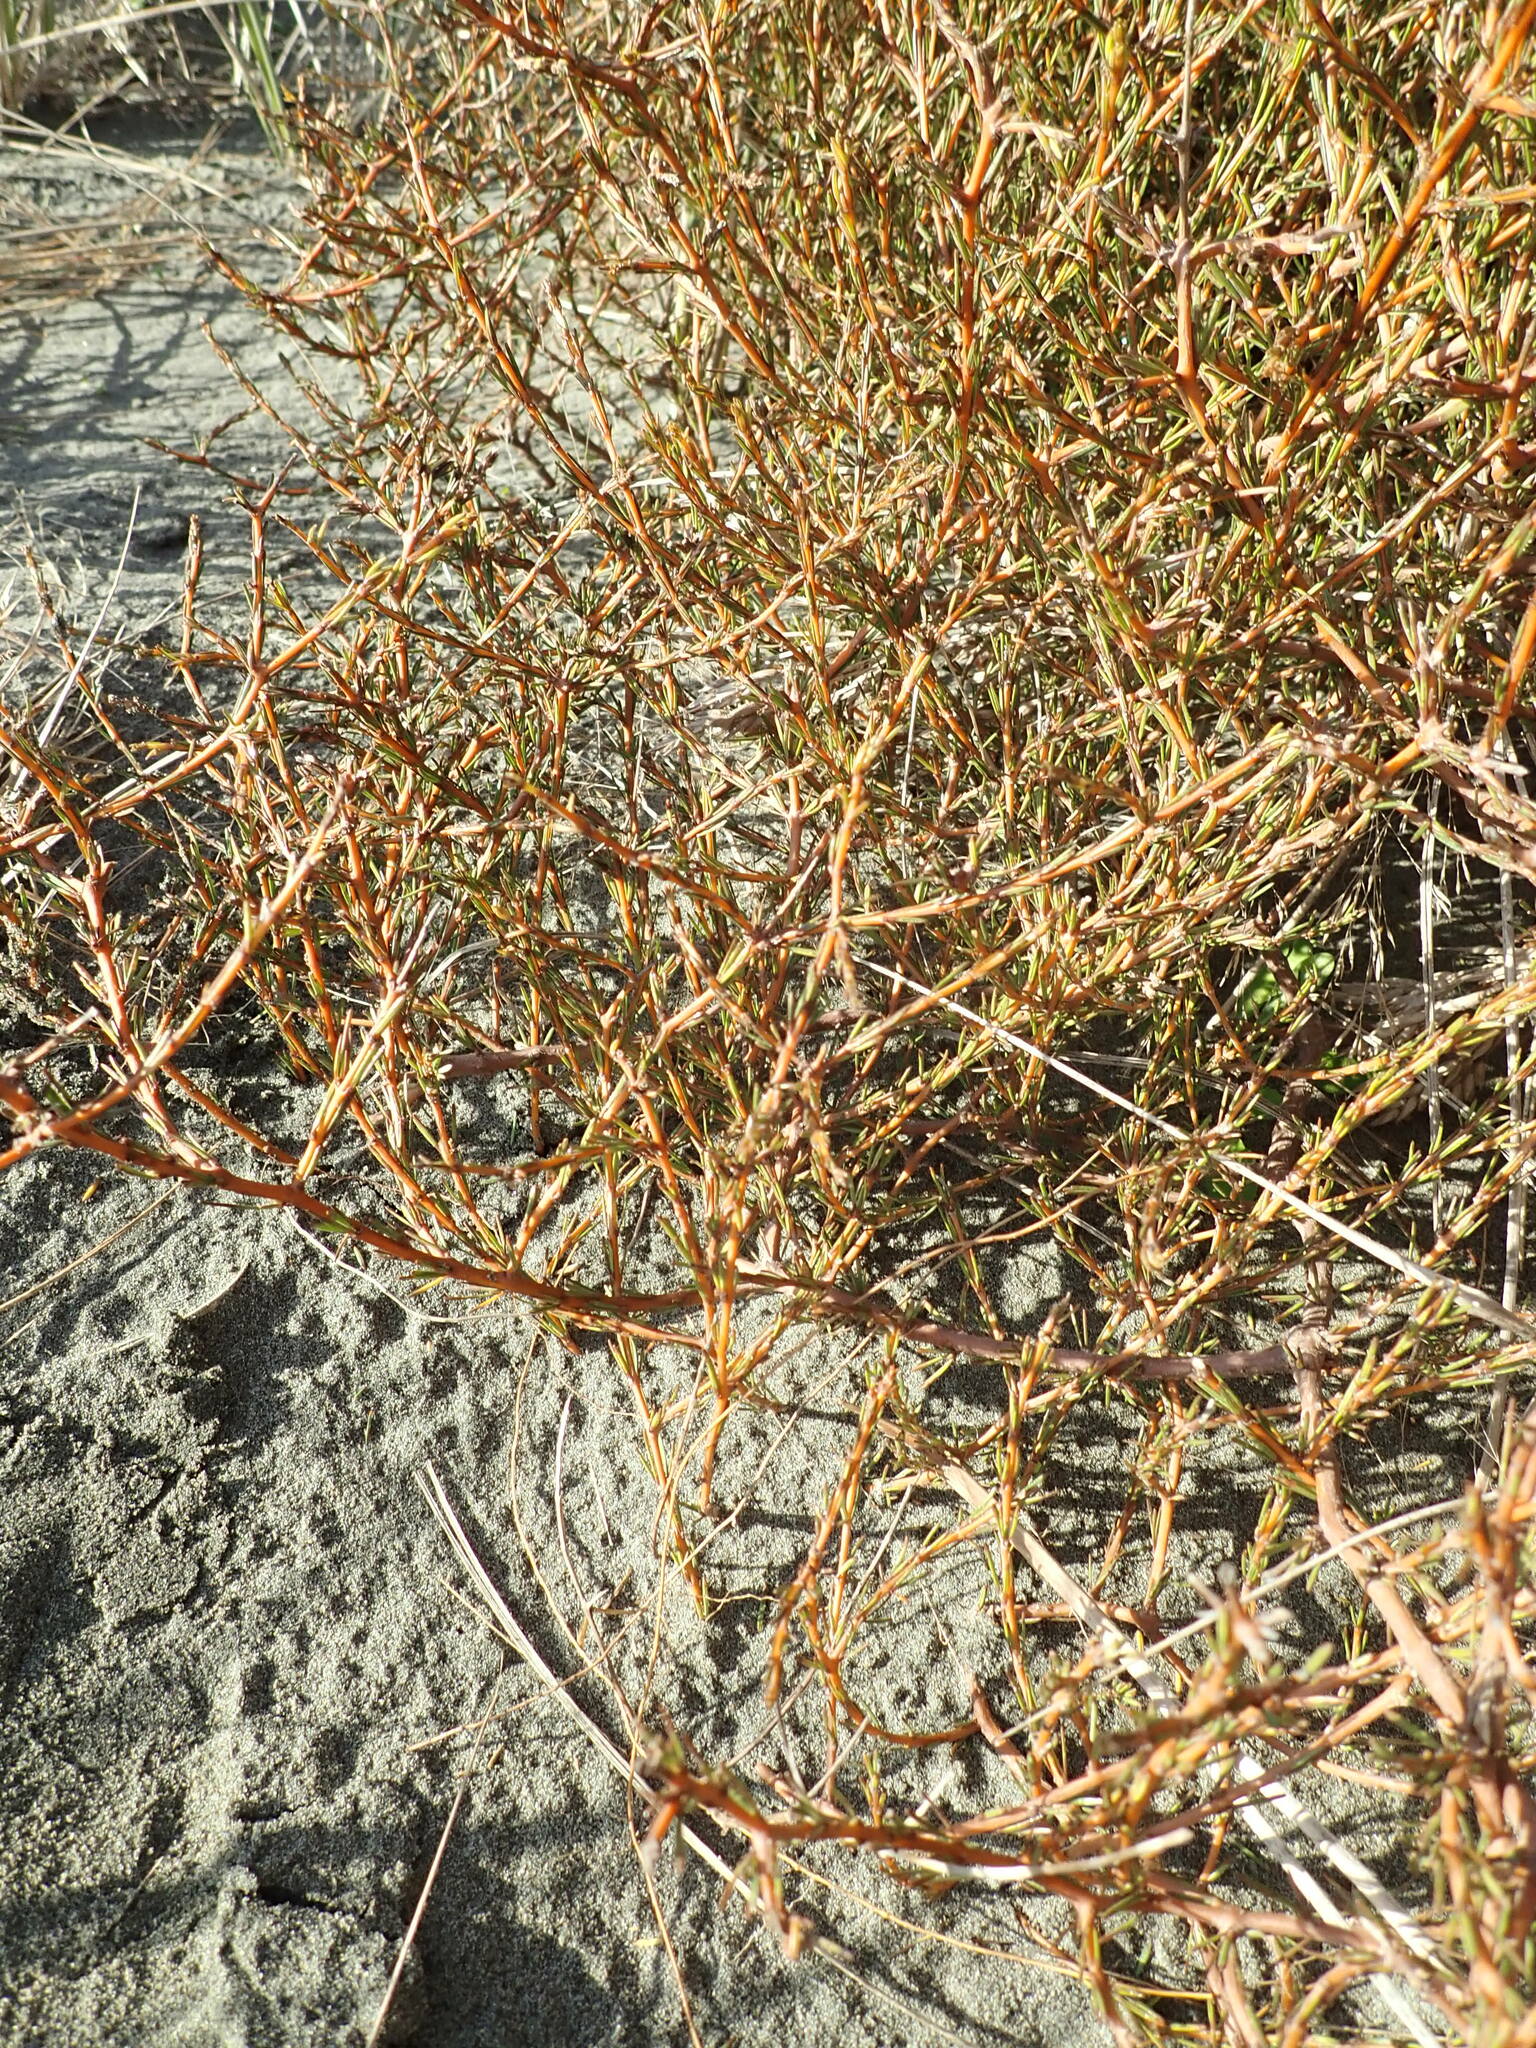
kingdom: Plantae
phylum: Tracheophyta
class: Magnoliopsida
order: Gentianales
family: Rubiaceae
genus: Coprosma
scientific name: Coprosma acerosa
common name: Sand coprosma
